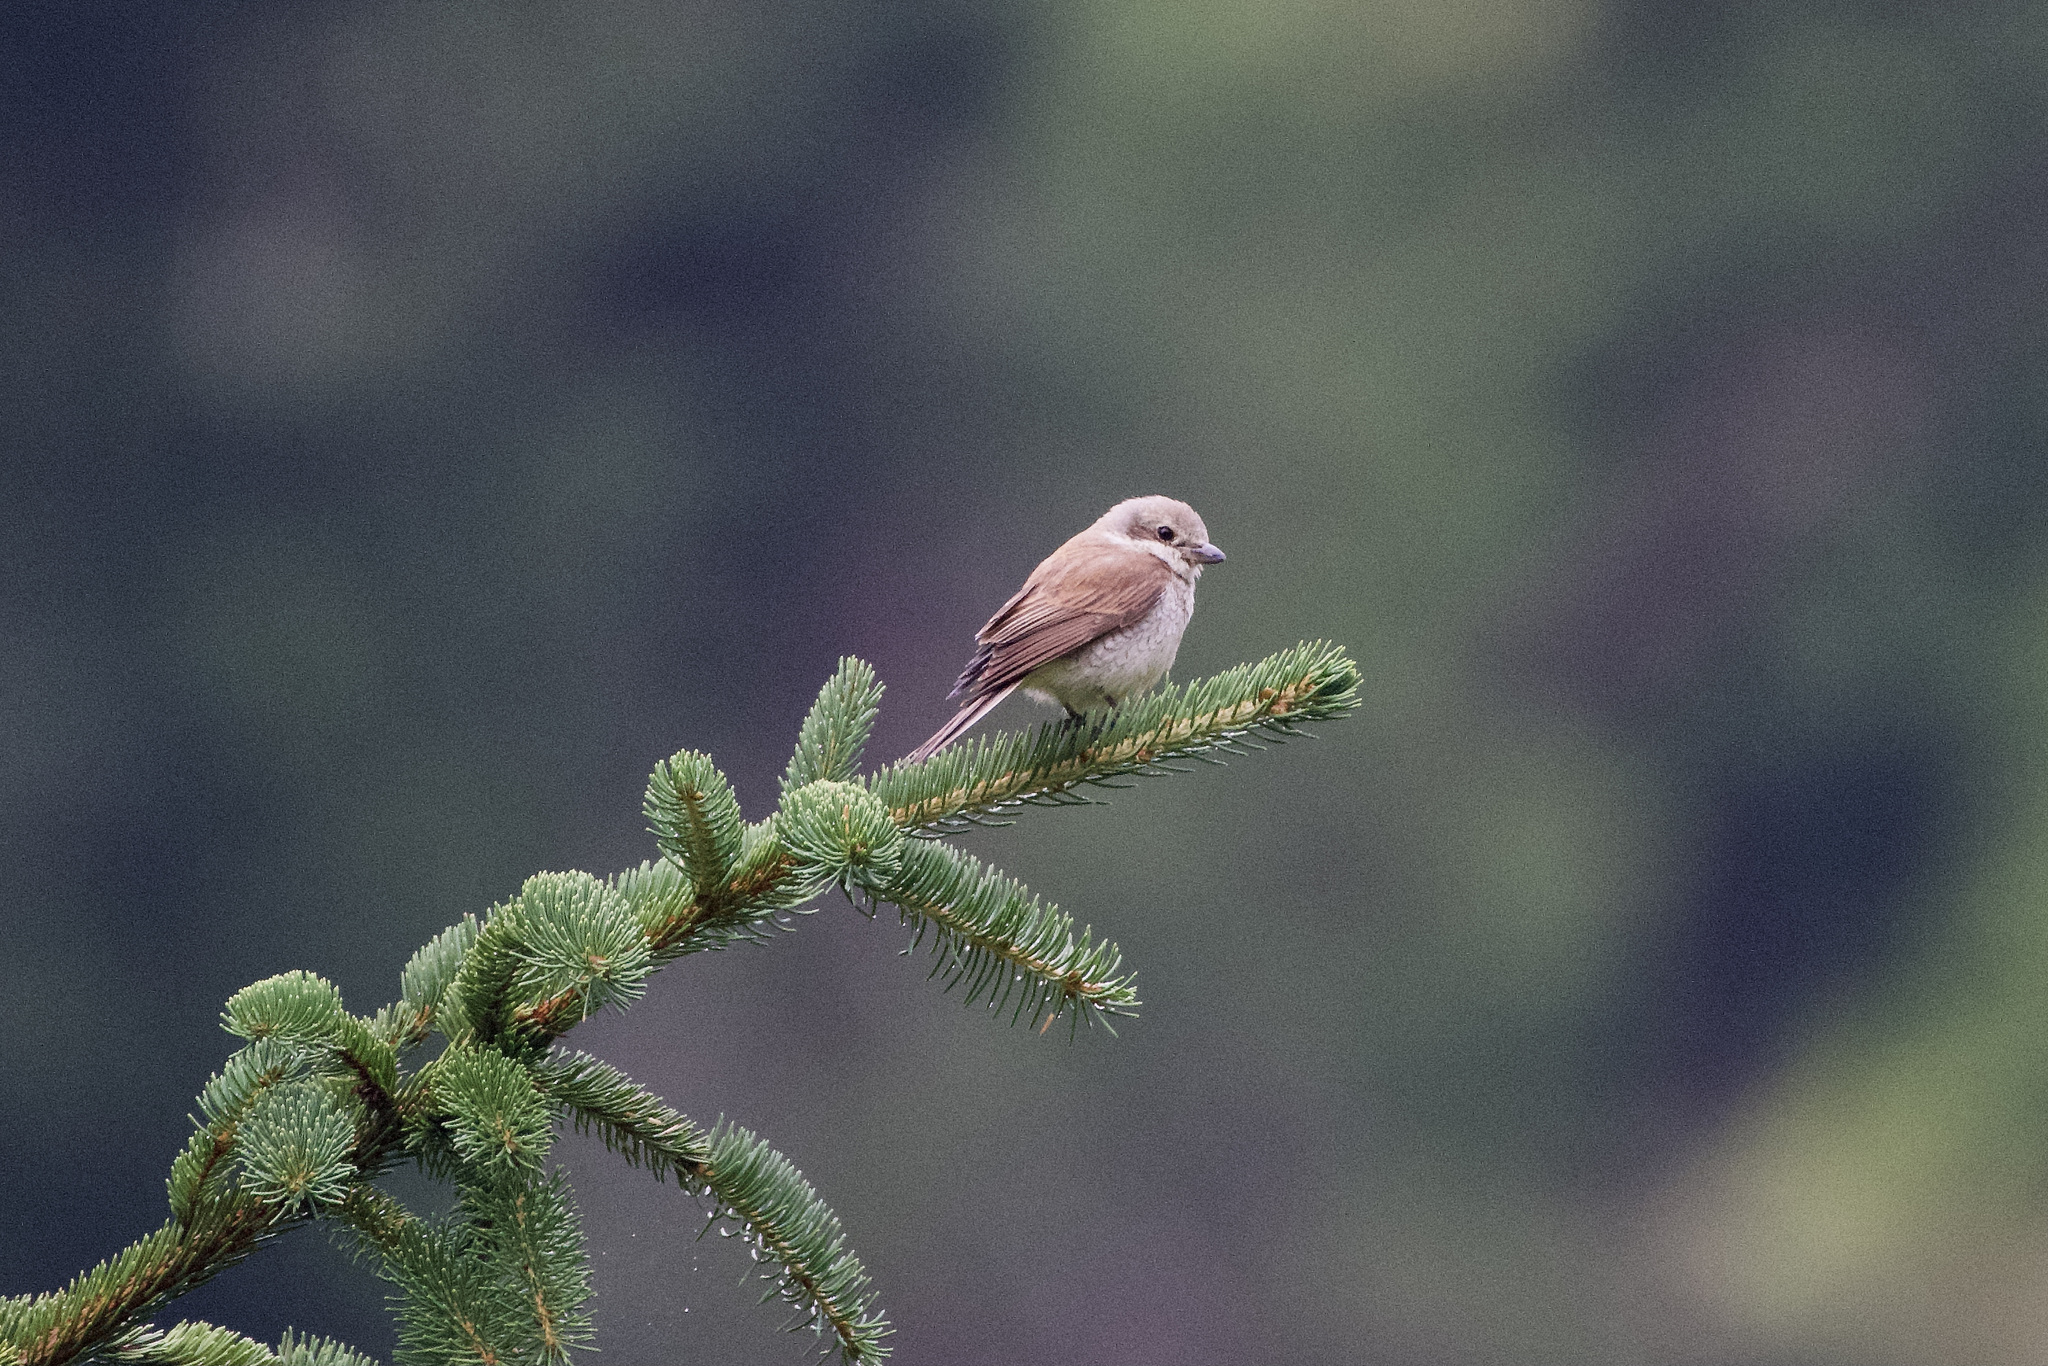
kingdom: Animalia
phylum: Chordata
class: Aves
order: Passeriformes
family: Laniidae
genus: Lanius
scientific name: Lanius collurio
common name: Red-backed shrike
